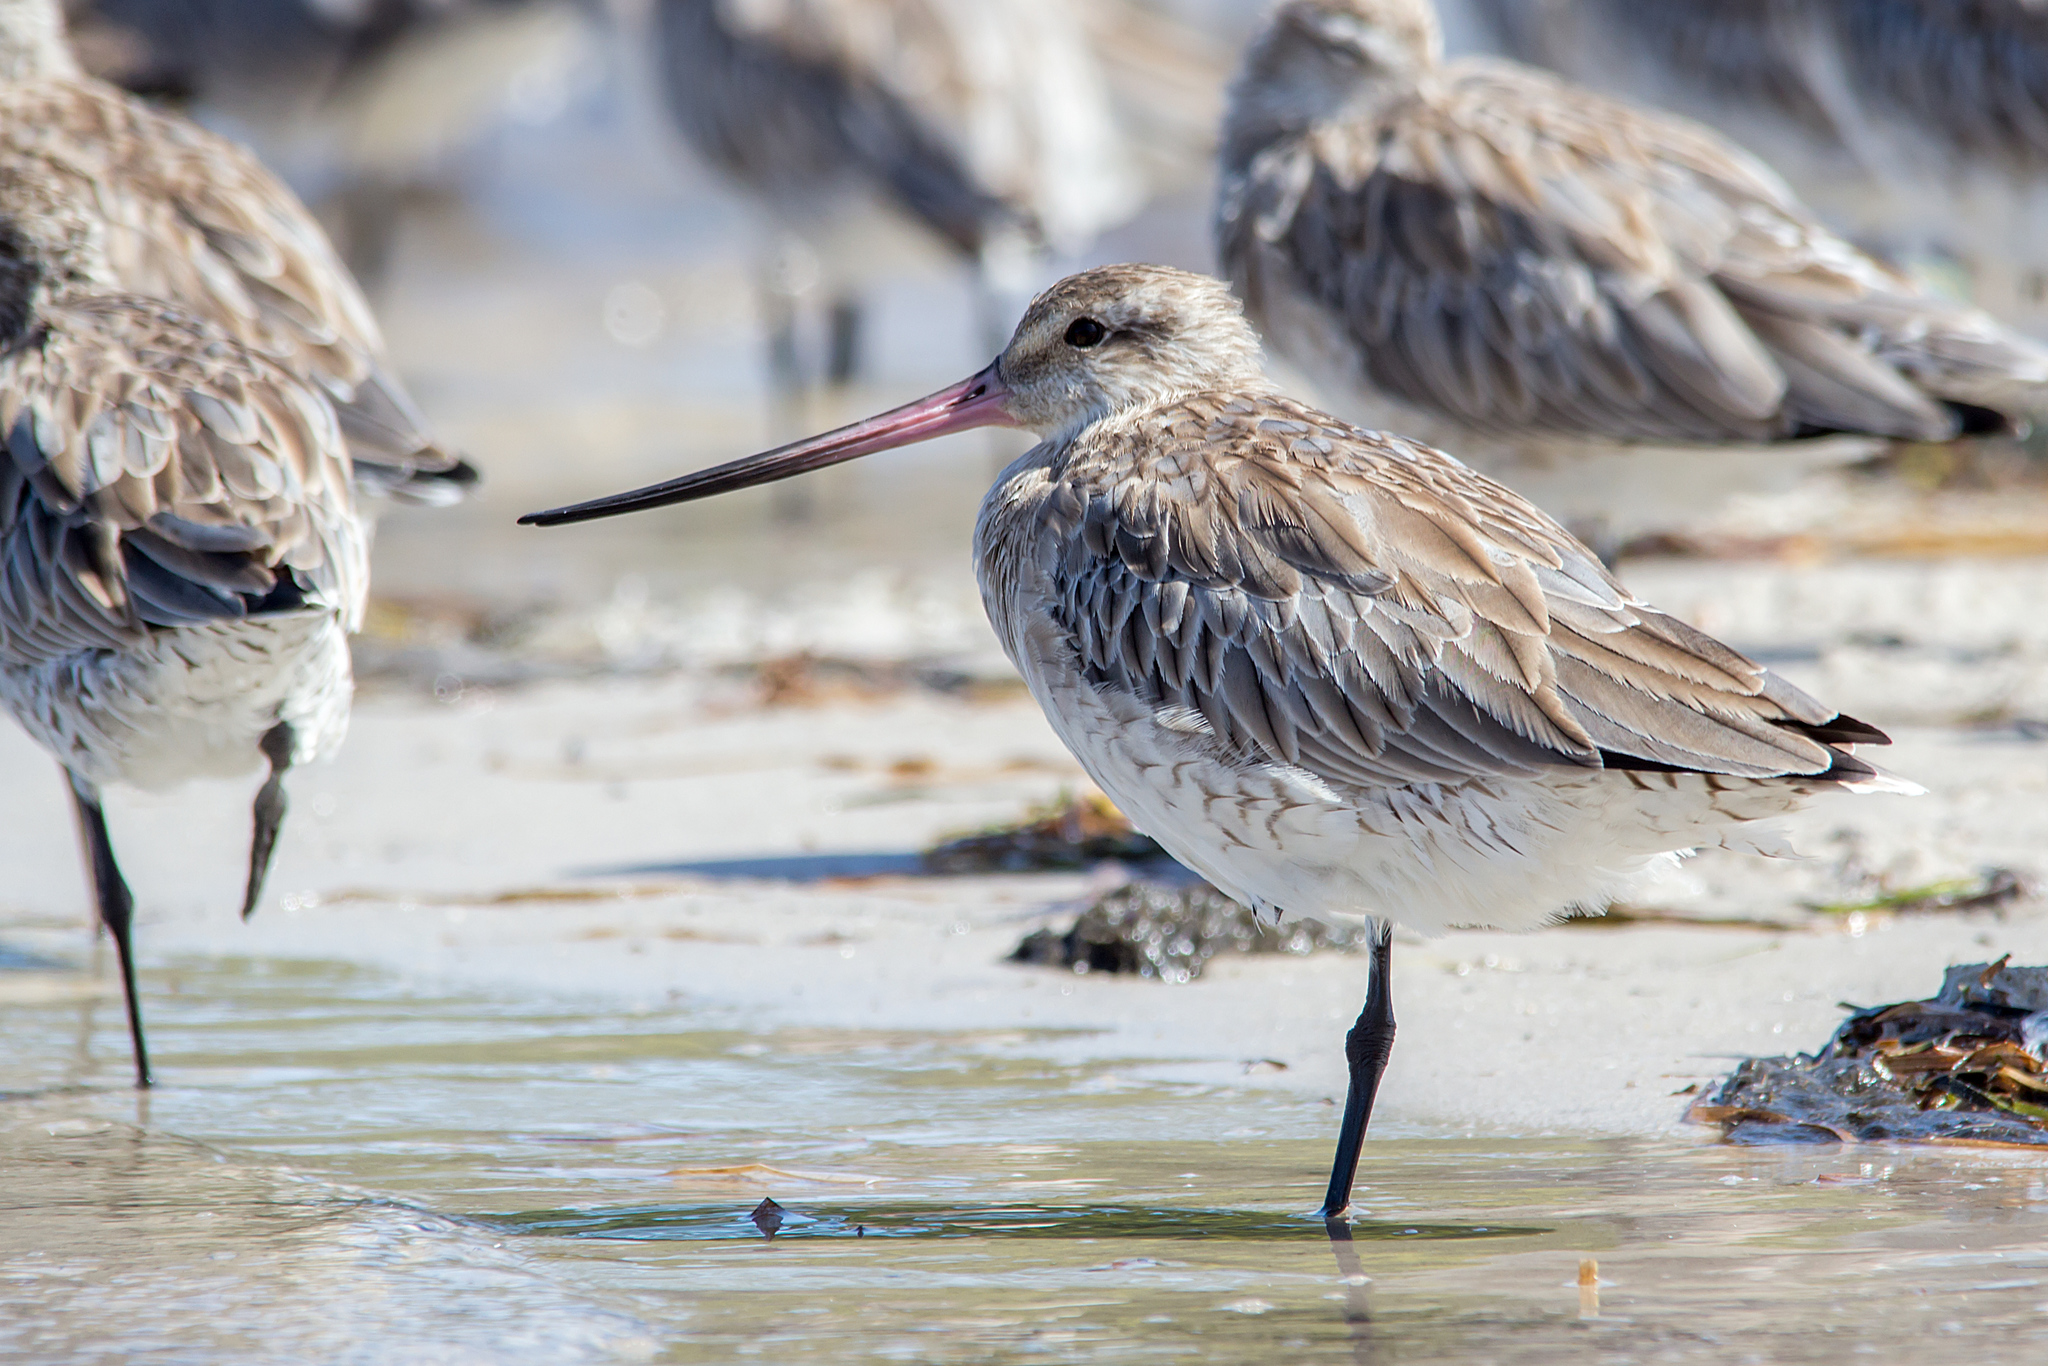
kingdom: Animalia
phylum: Chordata
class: Aves
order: Charadriiformes
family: Scolopacidae
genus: Limosa
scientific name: Limosa lapponica
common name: Bar-tailed godwit
